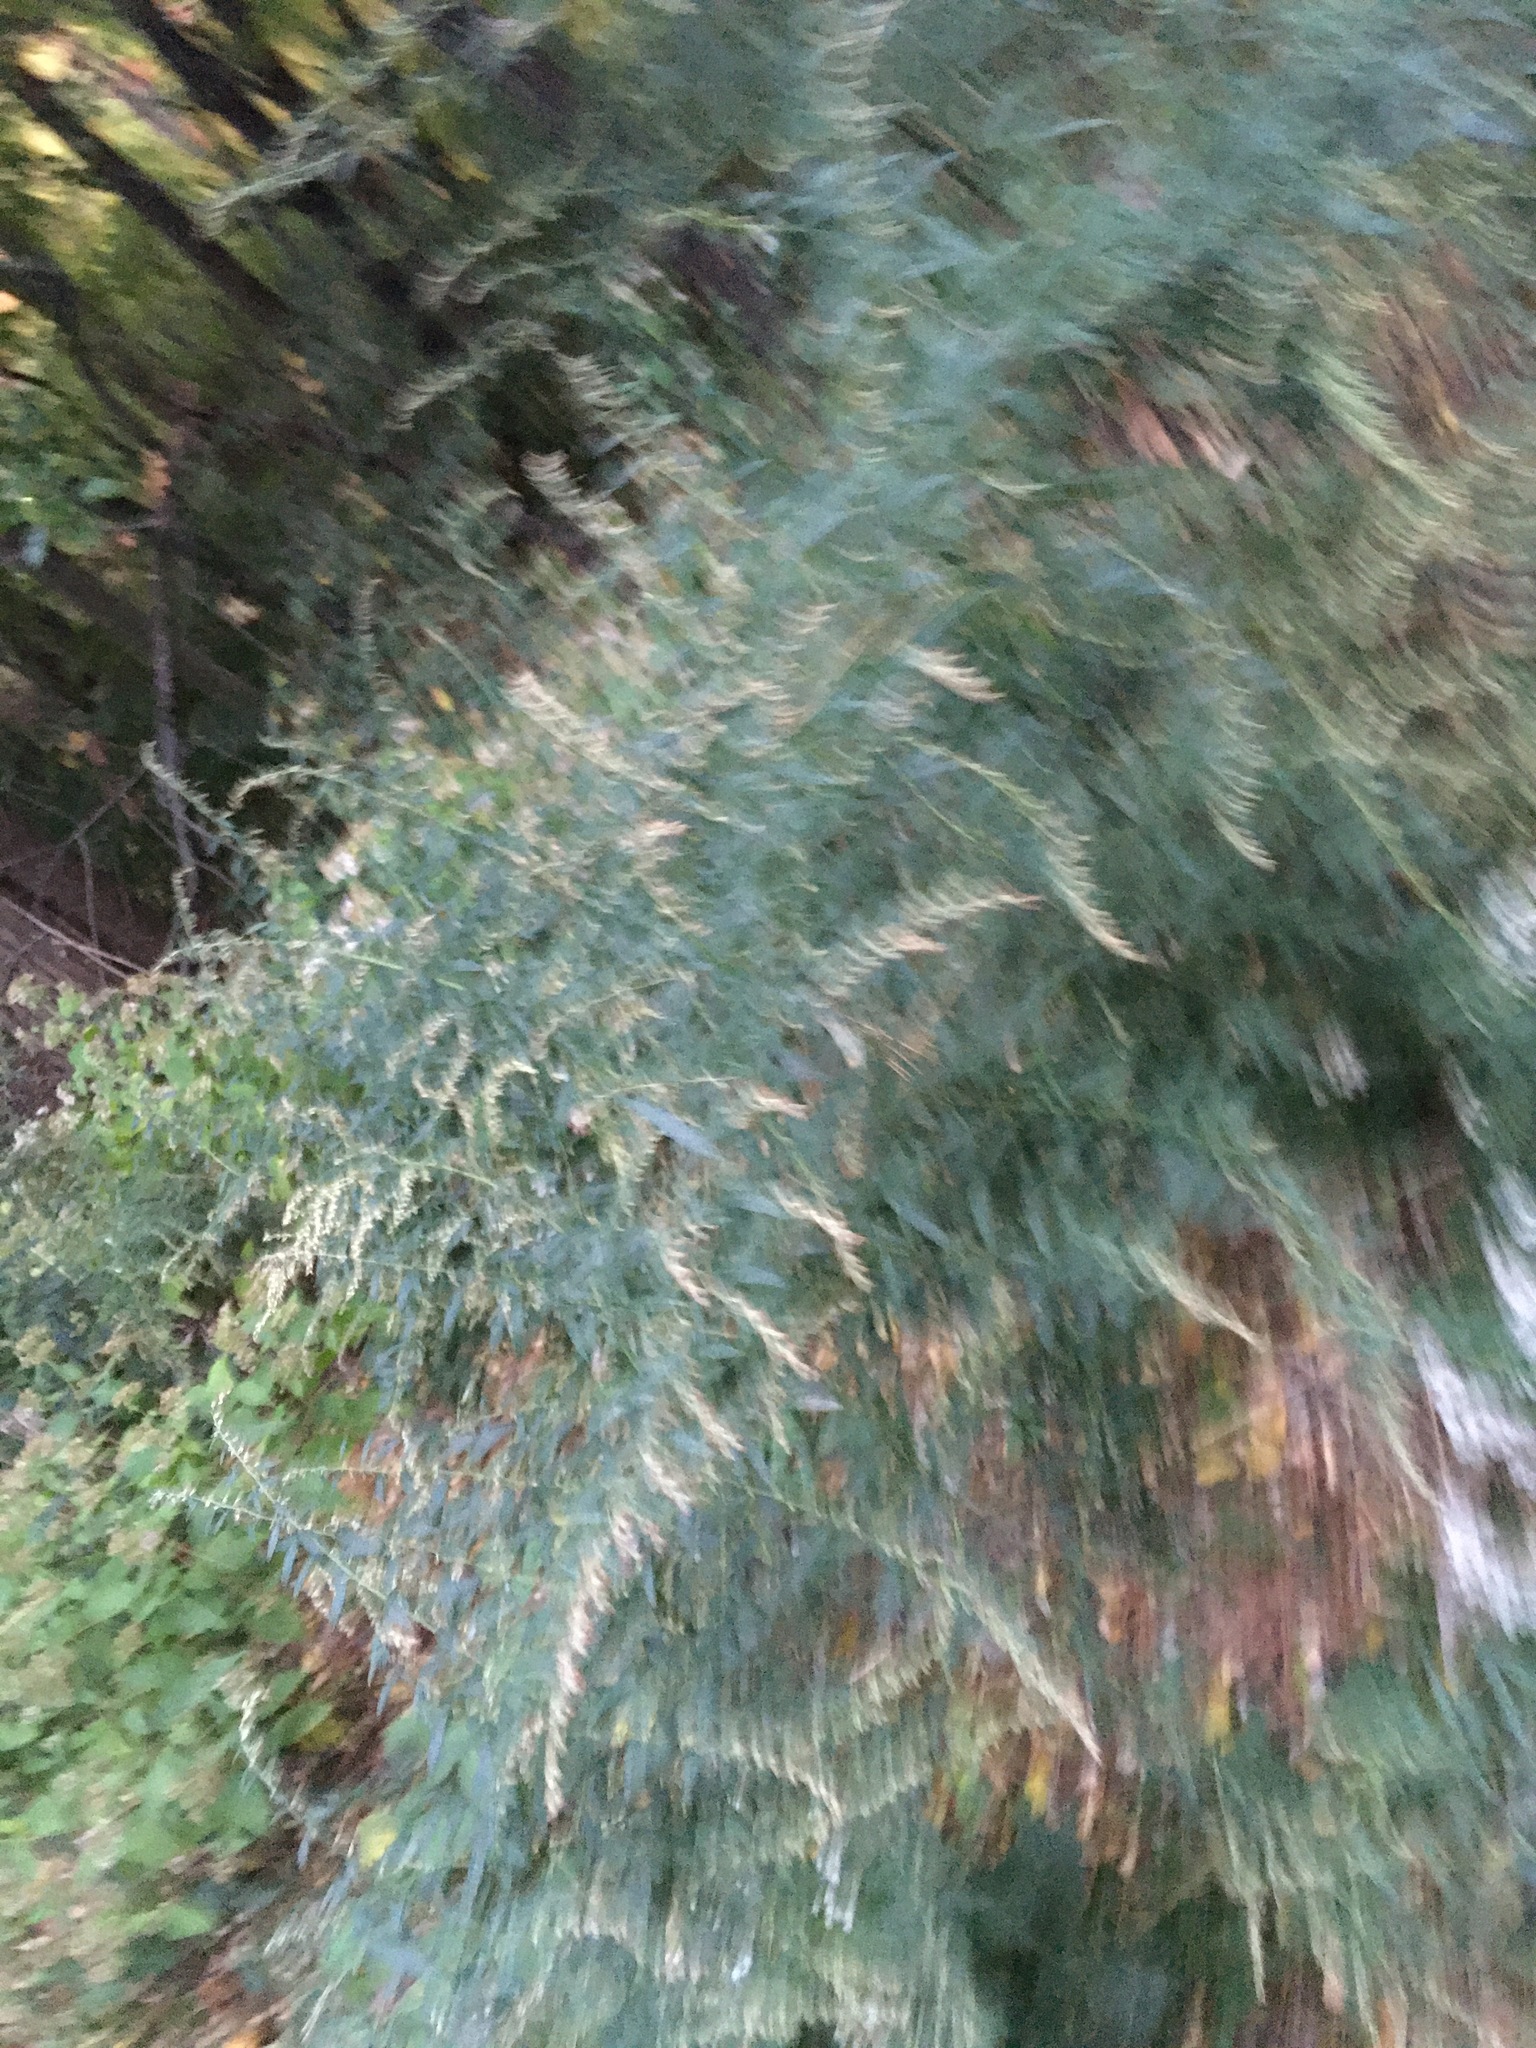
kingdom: Plantae
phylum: Tracheophyta
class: Magnoliopsida
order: Asterales
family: Asteraceae
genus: Artemisia
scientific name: Artemisia vulgaris
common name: Mugwort
